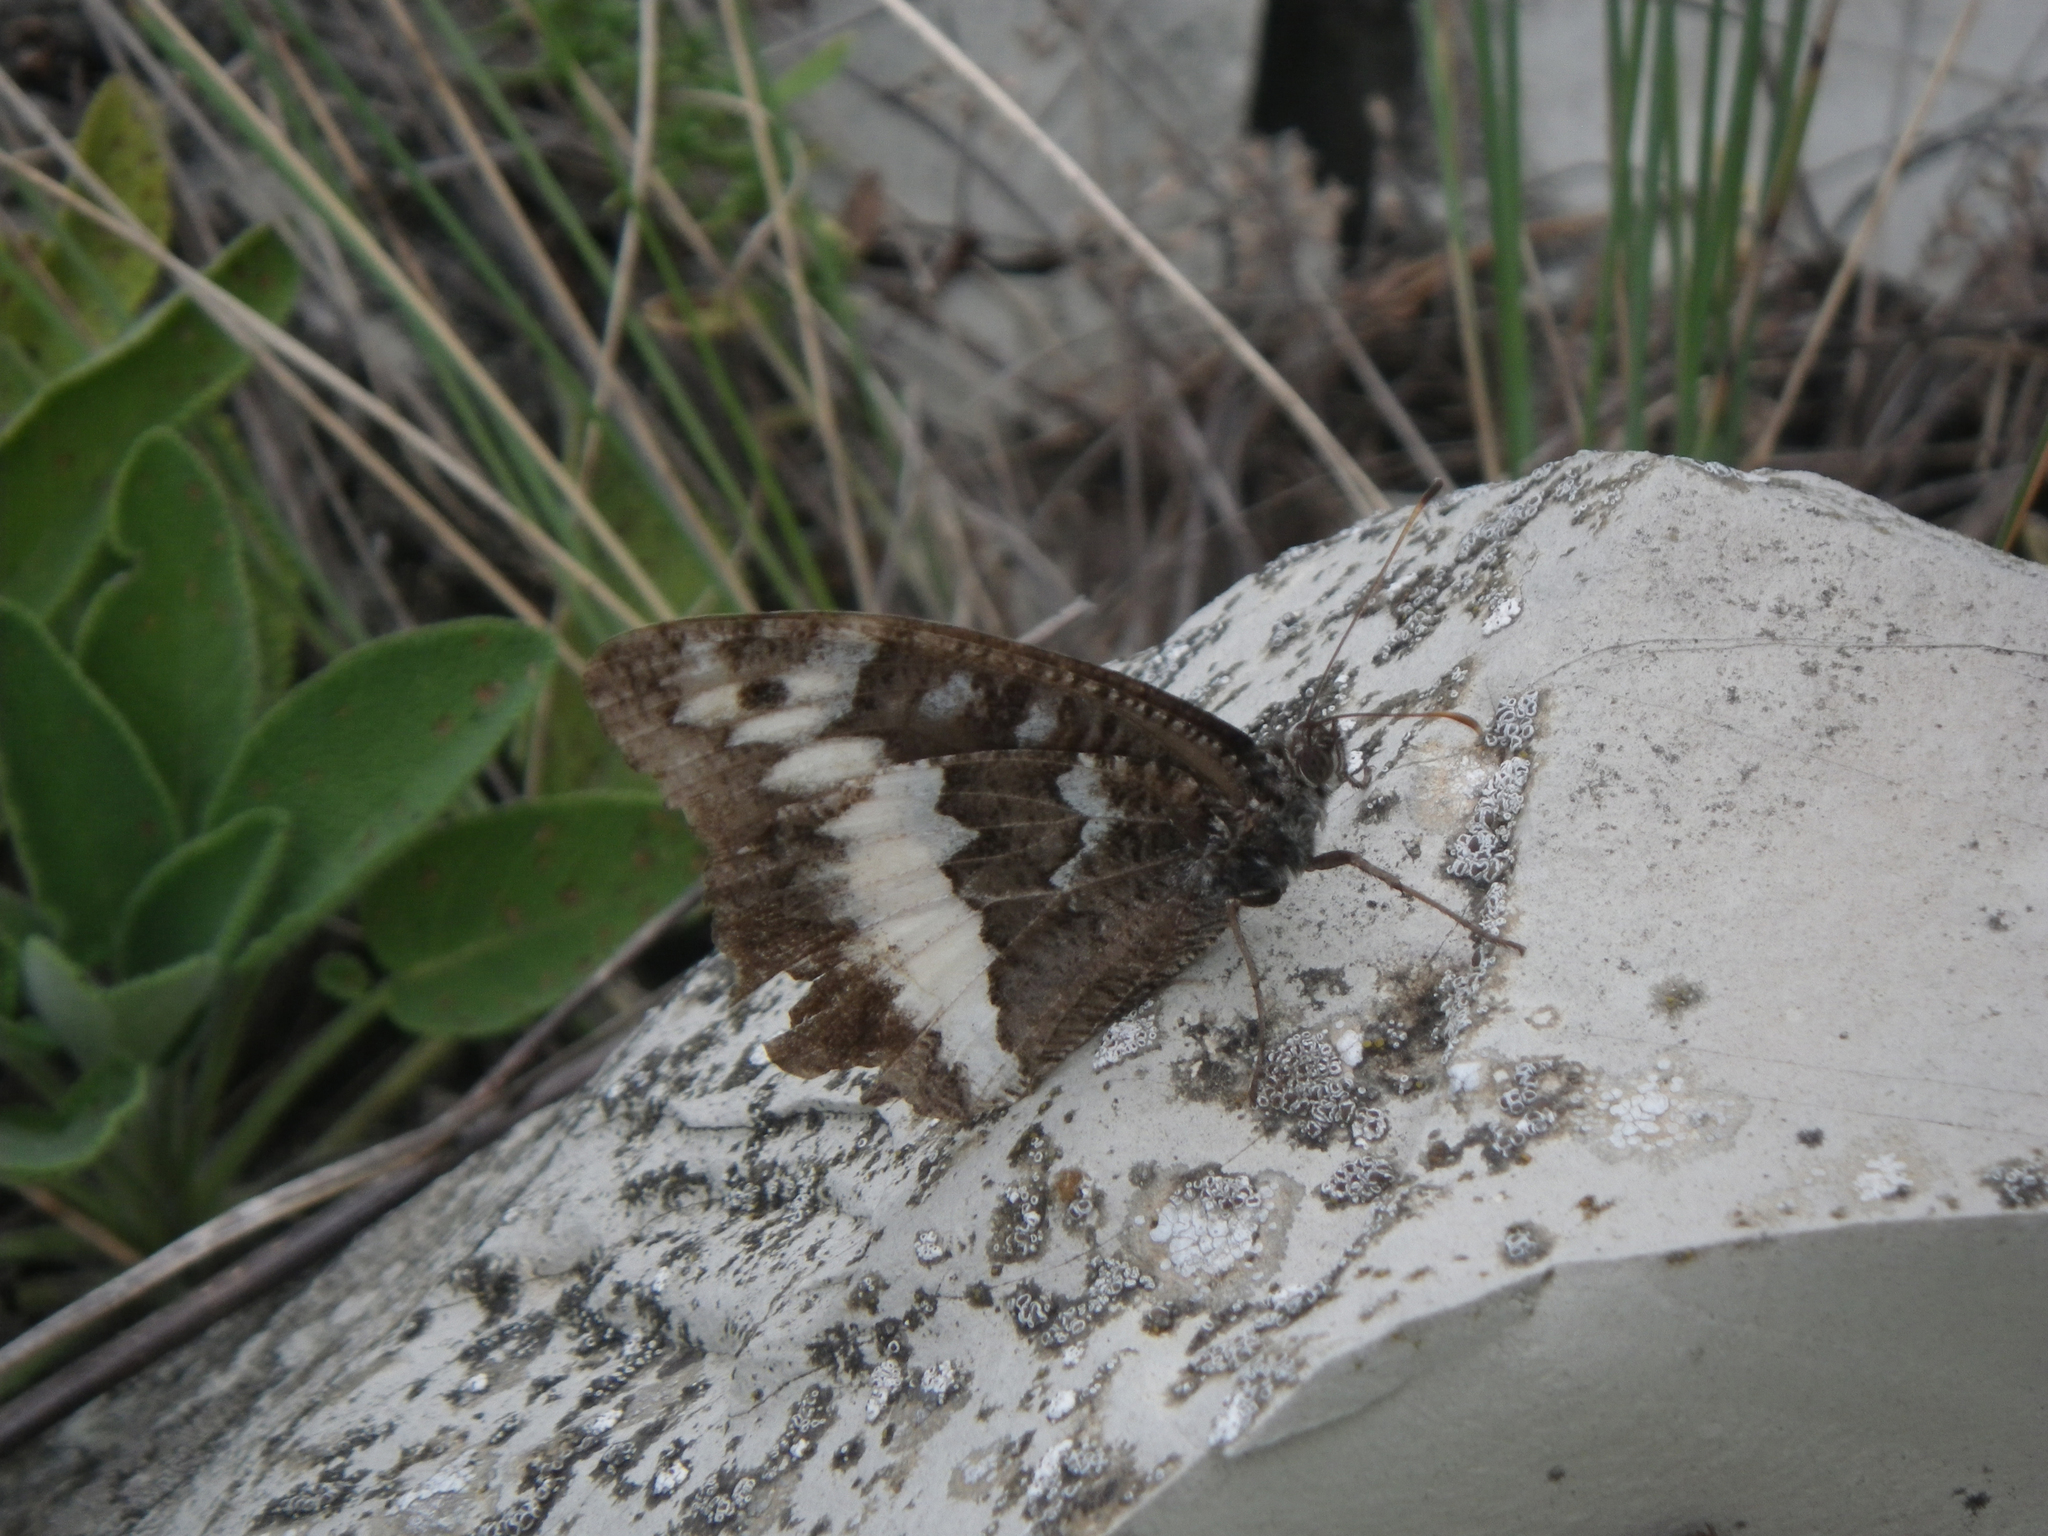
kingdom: Animalia
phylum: Arthropoda
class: Insecta
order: Lepidoptera
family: Lycaenidae
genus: Loweia
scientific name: Loweia tityrus
